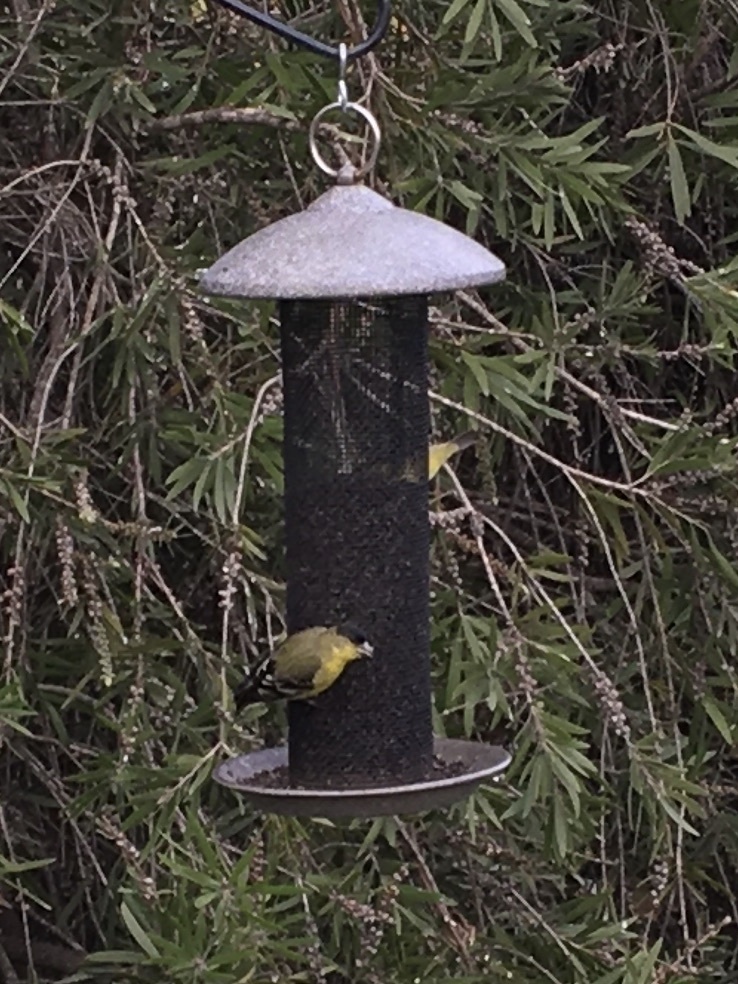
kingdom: Animalia
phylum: Chordata
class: Aves
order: Passeriformes
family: Fringillidae
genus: Spinus
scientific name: Spinus psaltria
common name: Lesser goldfinch
